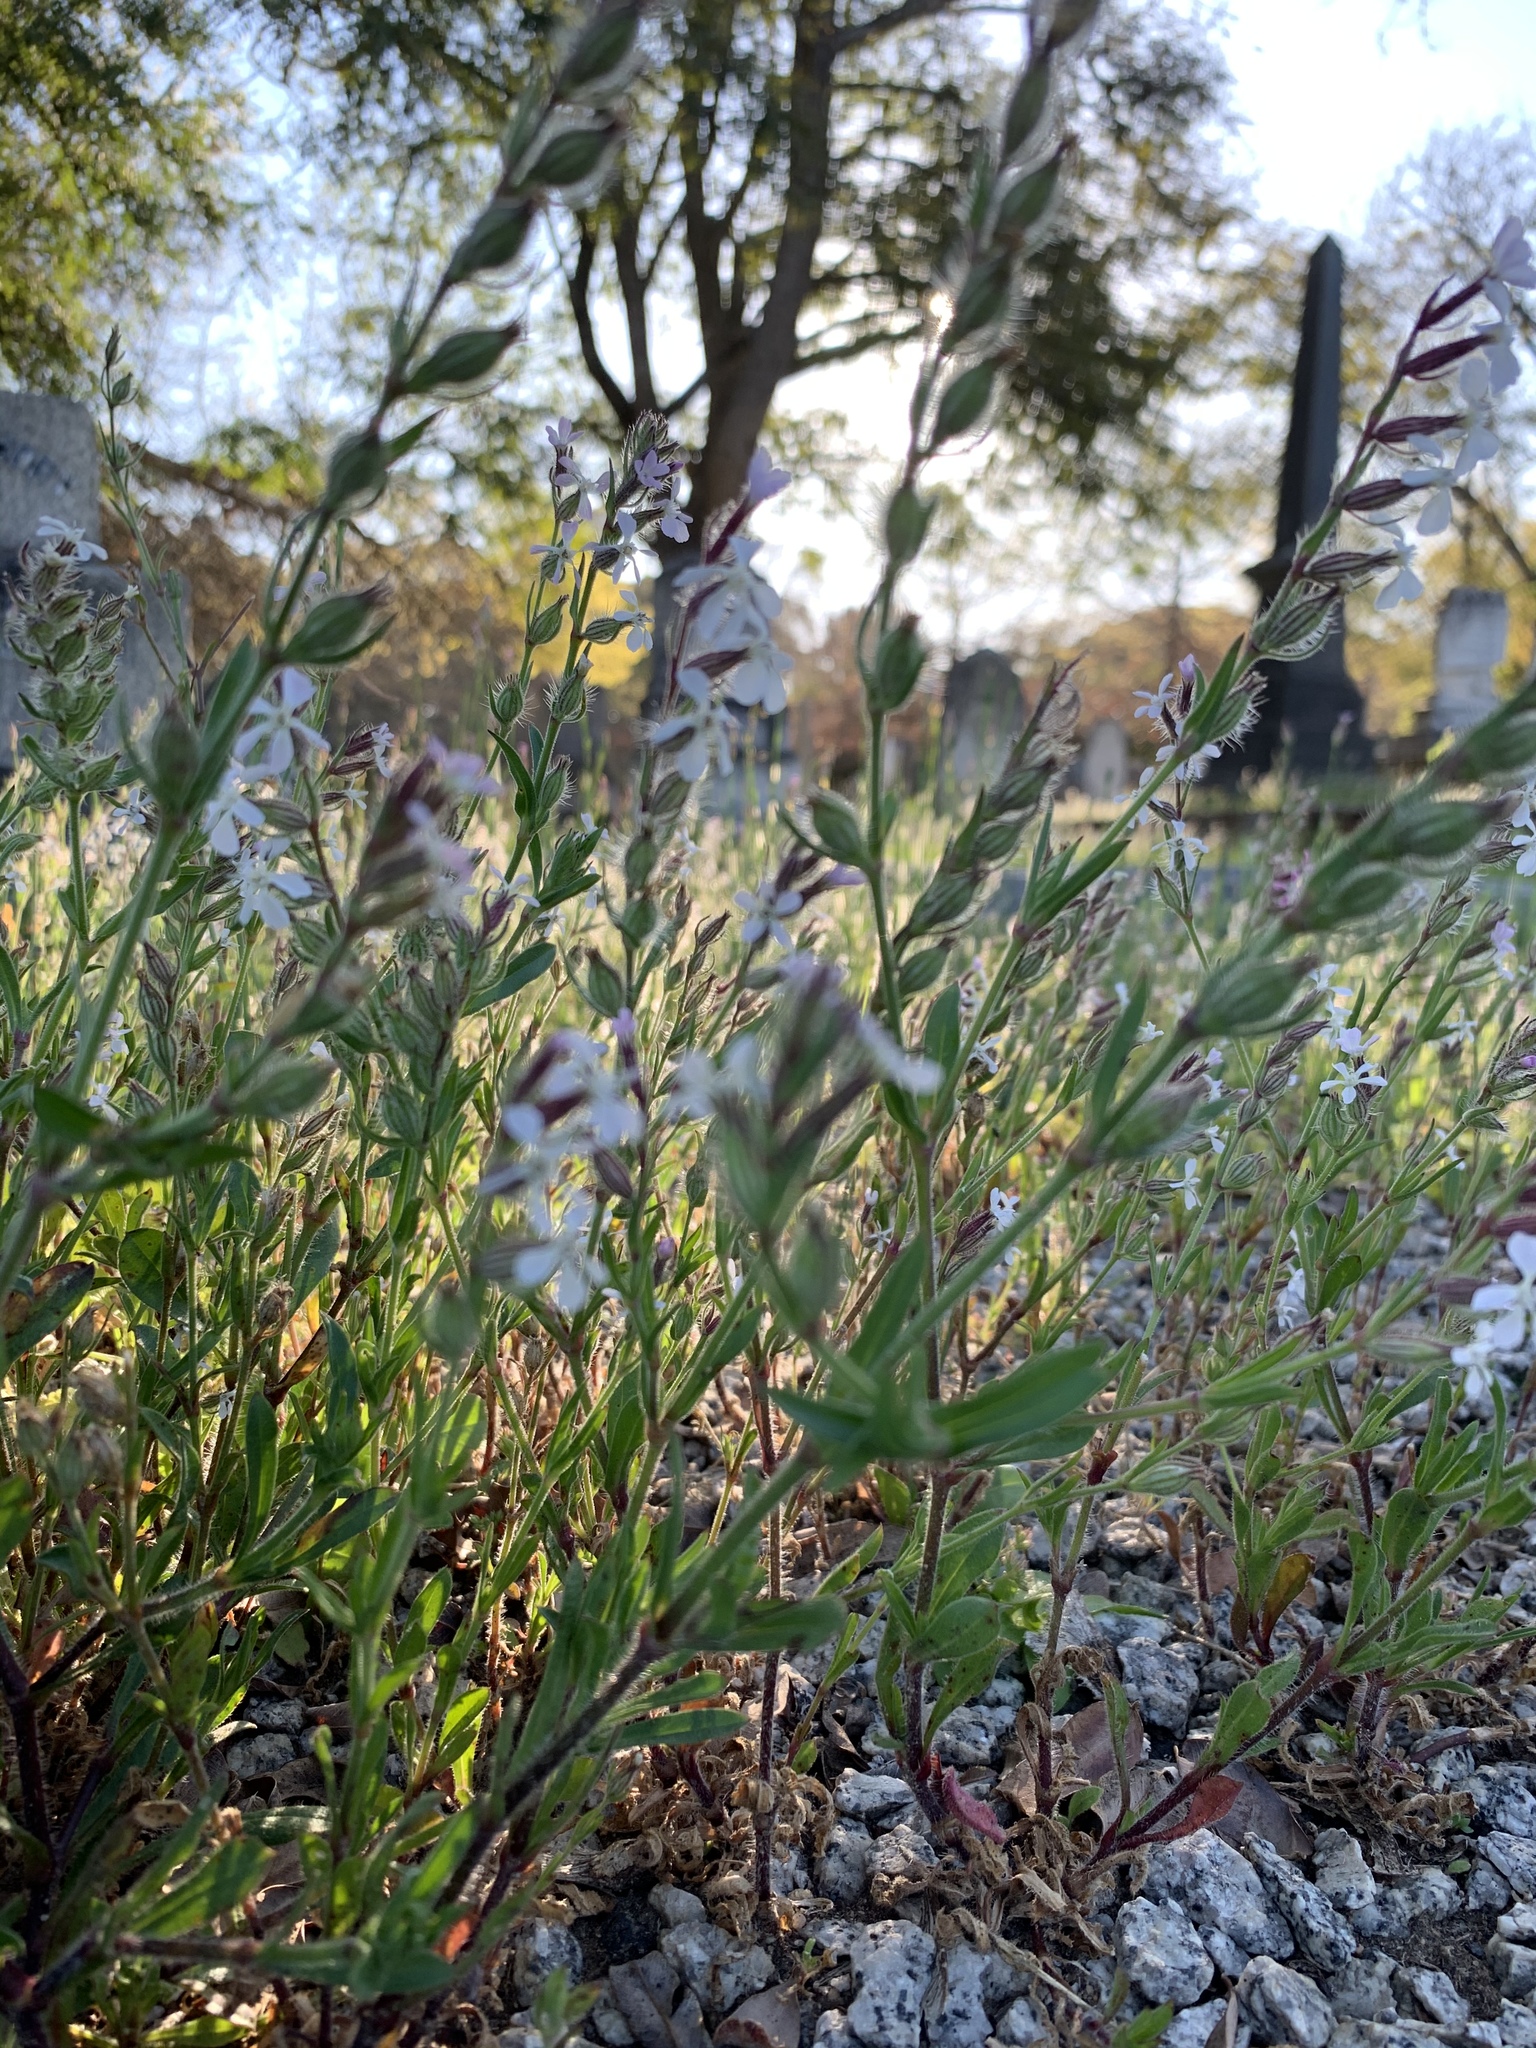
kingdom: Plantae
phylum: Tracheophyta
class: Magnoliopsida
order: Caryophyllales
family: Caryophyllaceae
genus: Silene
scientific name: Silene gallica
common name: Small-flowered catchfly
